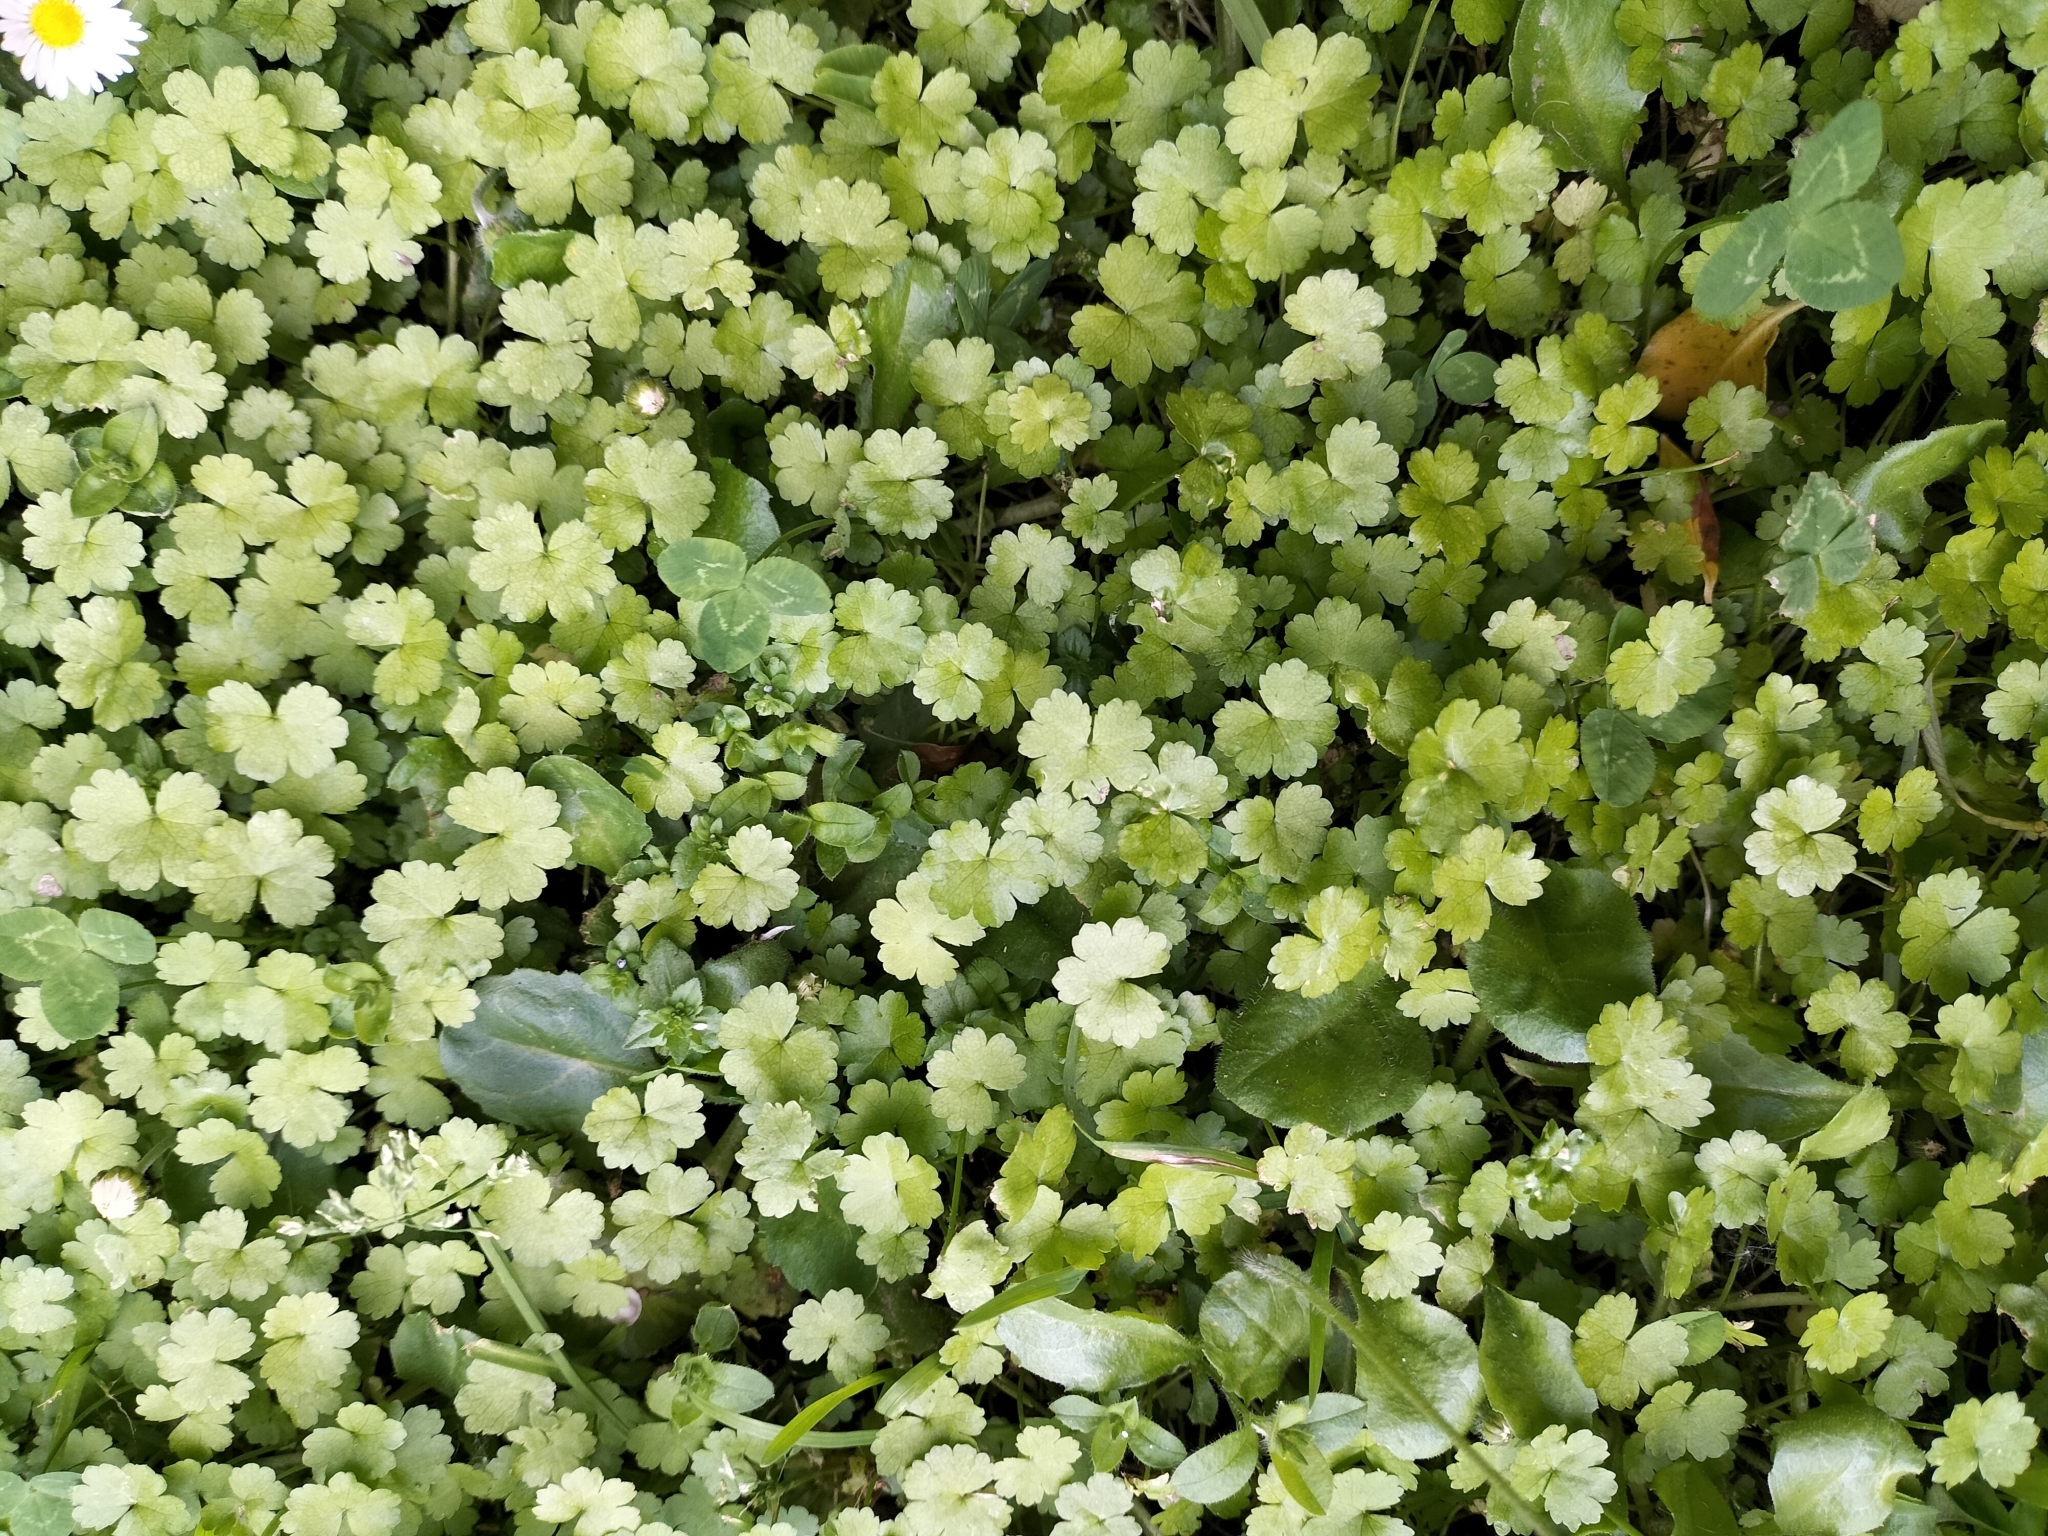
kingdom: Plantae
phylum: Tracheophyta
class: Magnoliopsida
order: Apiales
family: Araliaceae
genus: Hydrocotyle
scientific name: Hydrocotyle heteromeria
